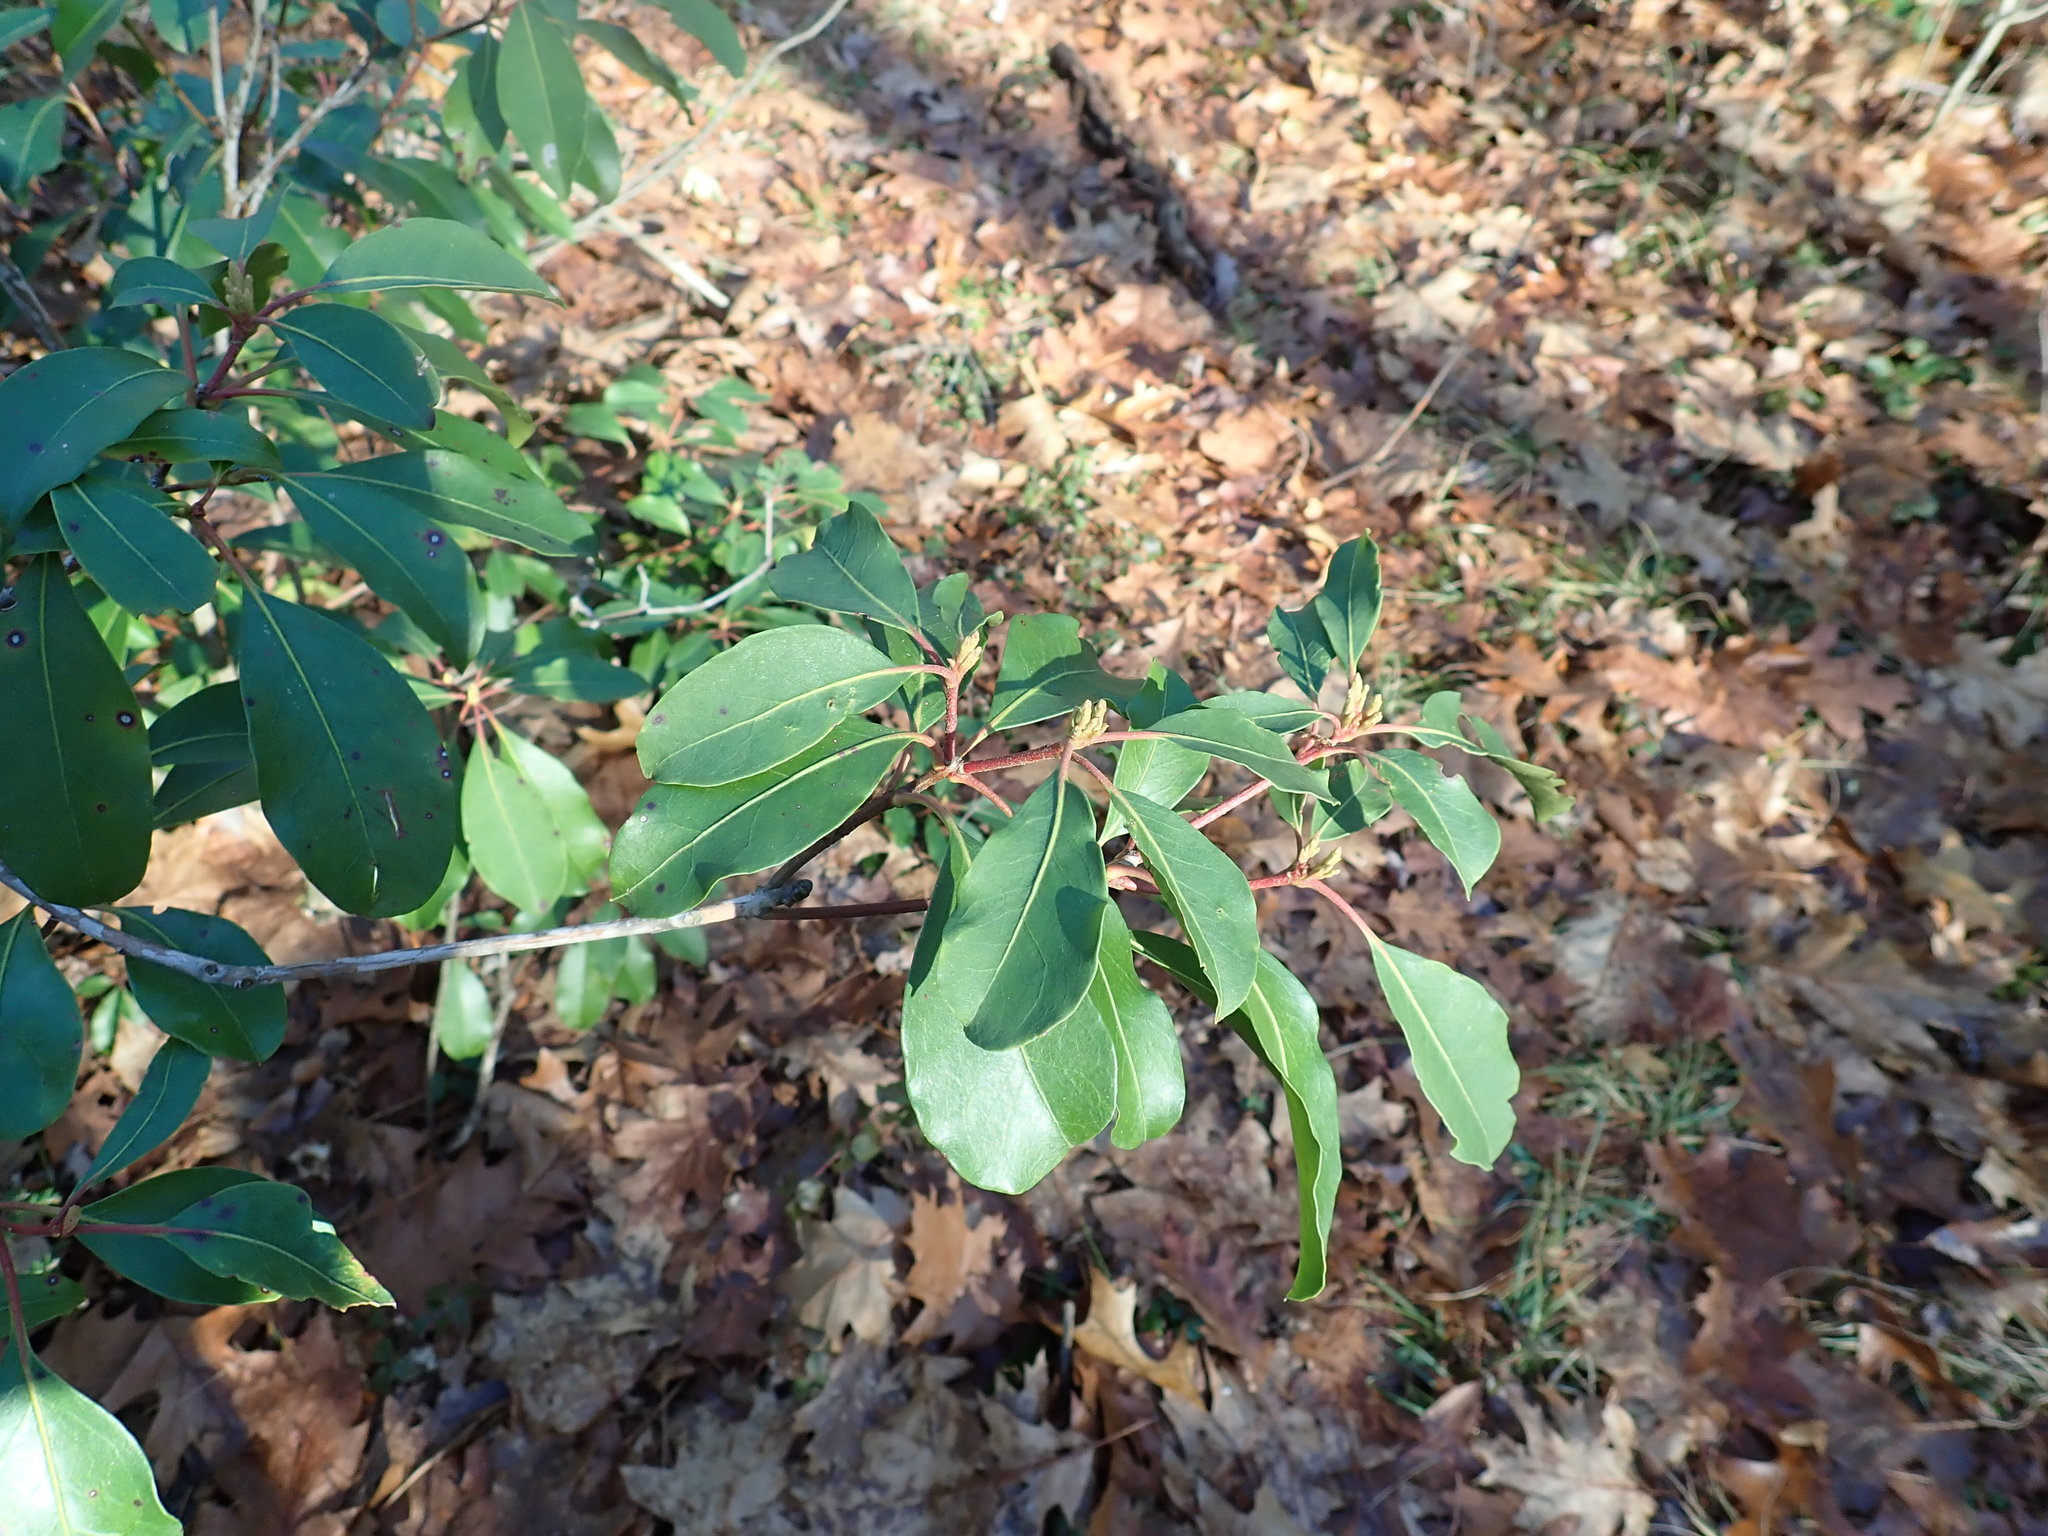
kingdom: Plantae
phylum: Tracheophyta
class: Magnoliopsida
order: Ericales
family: Ericaceae
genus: Kalmia
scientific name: Kalmia latifolia
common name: Mountain-laurel
